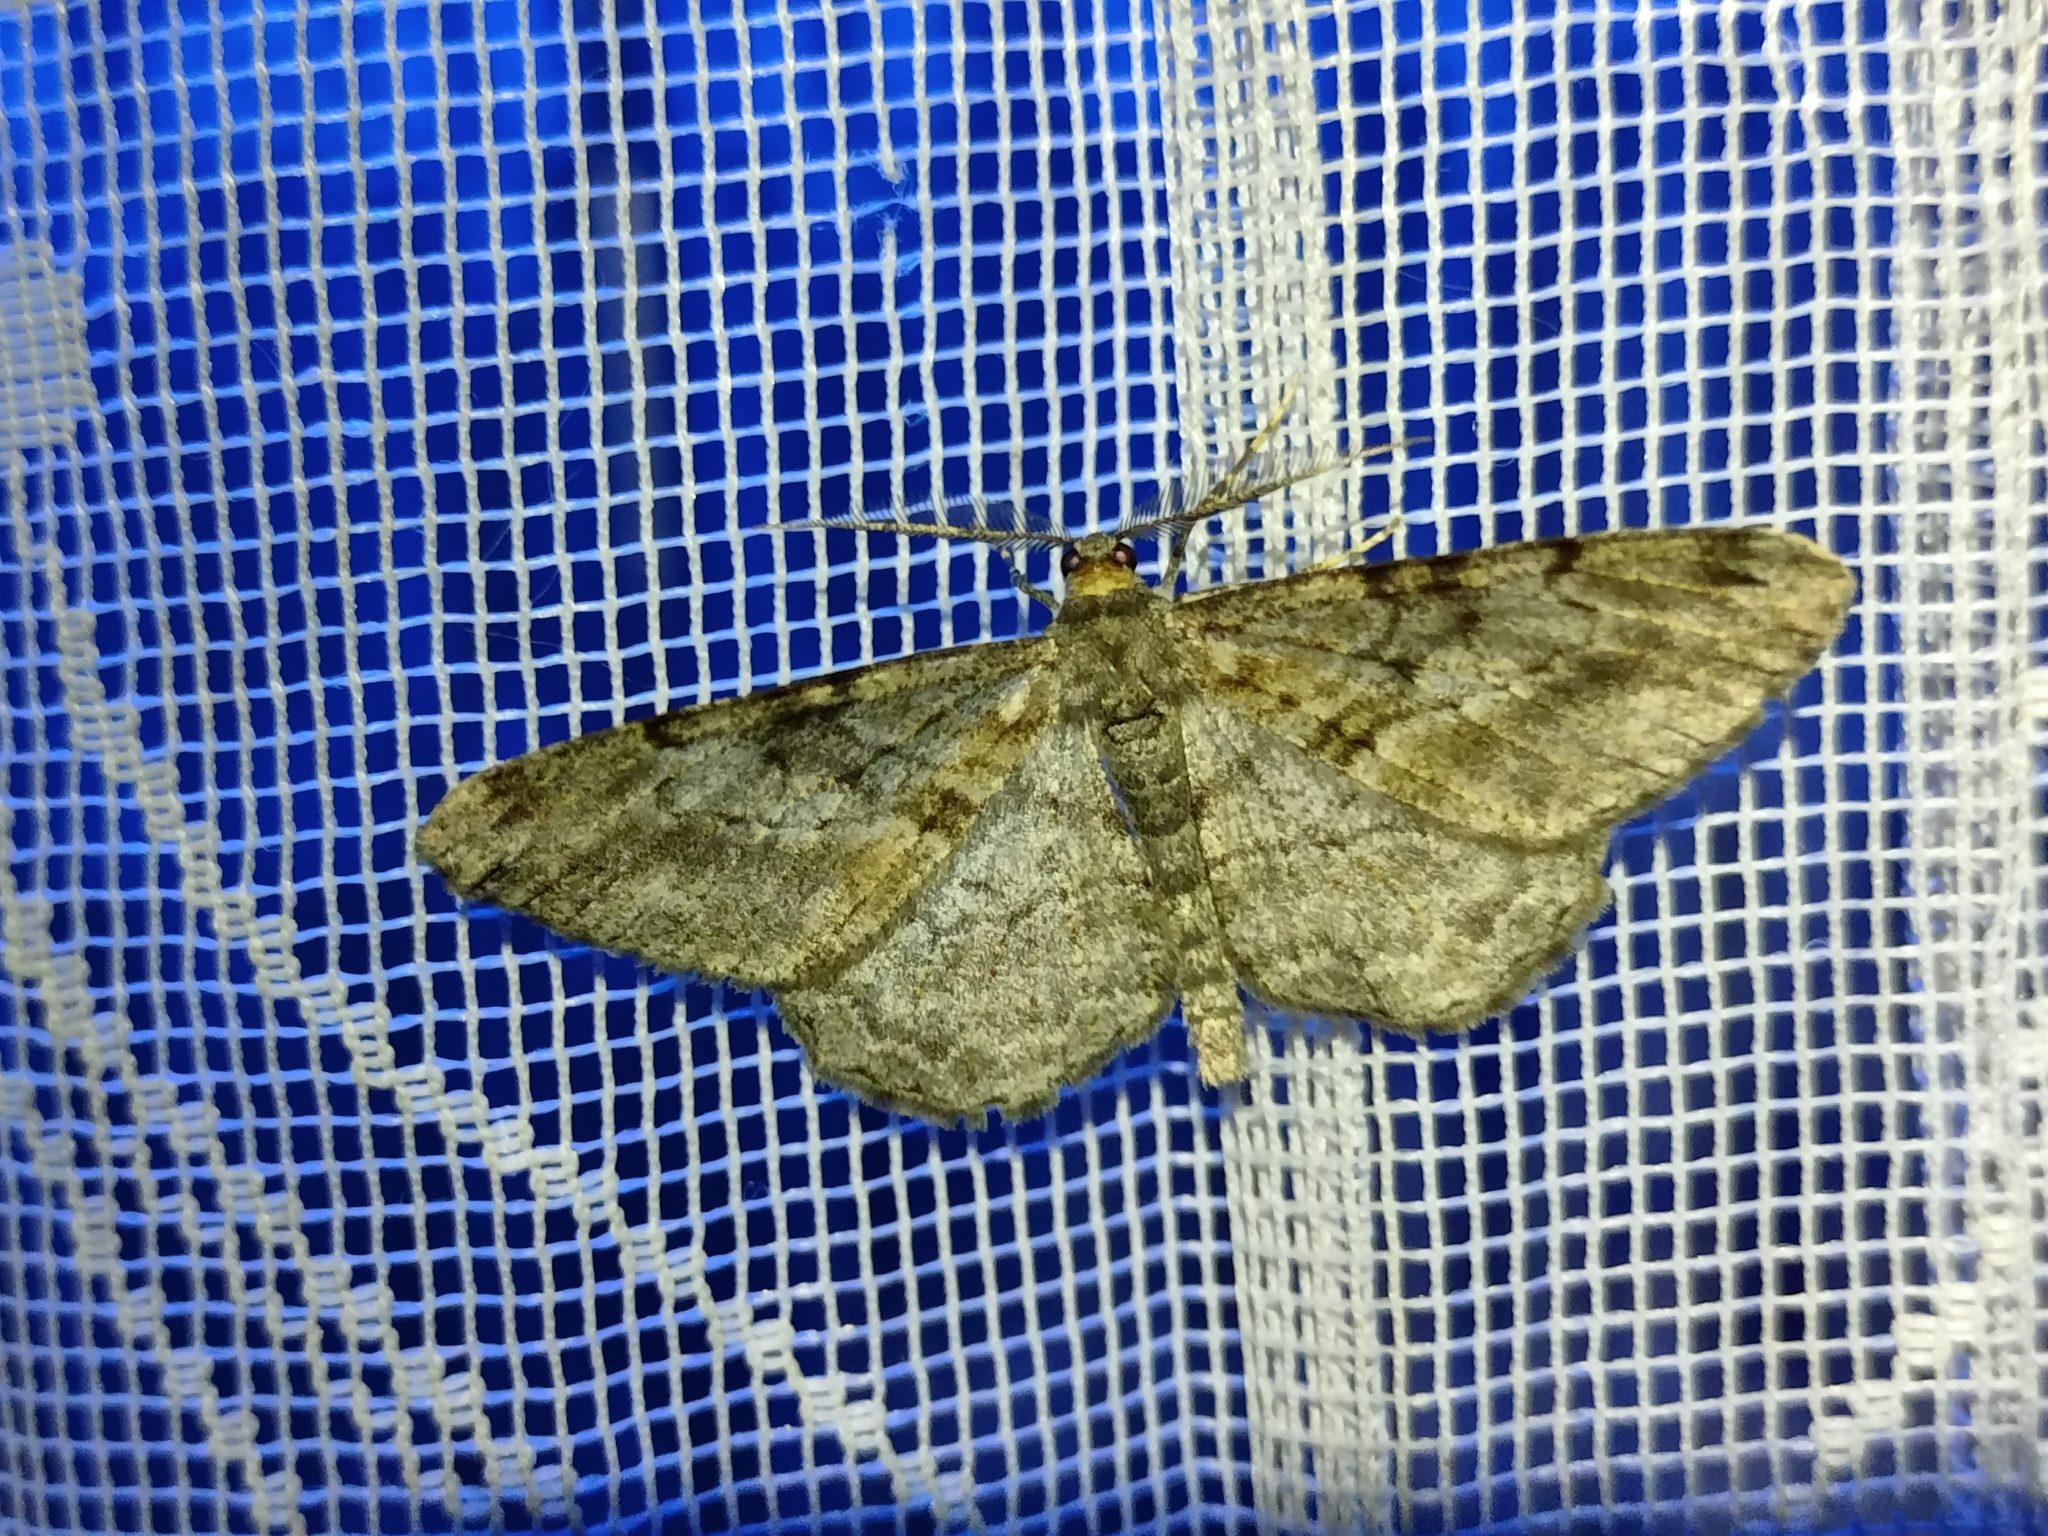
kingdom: Animalia
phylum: Arthropoda
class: Insecta
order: Lepidoptera
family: Geometridae
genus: Peribatodes
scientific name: Peribatodes rhomboidaria
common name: Willow beauty
